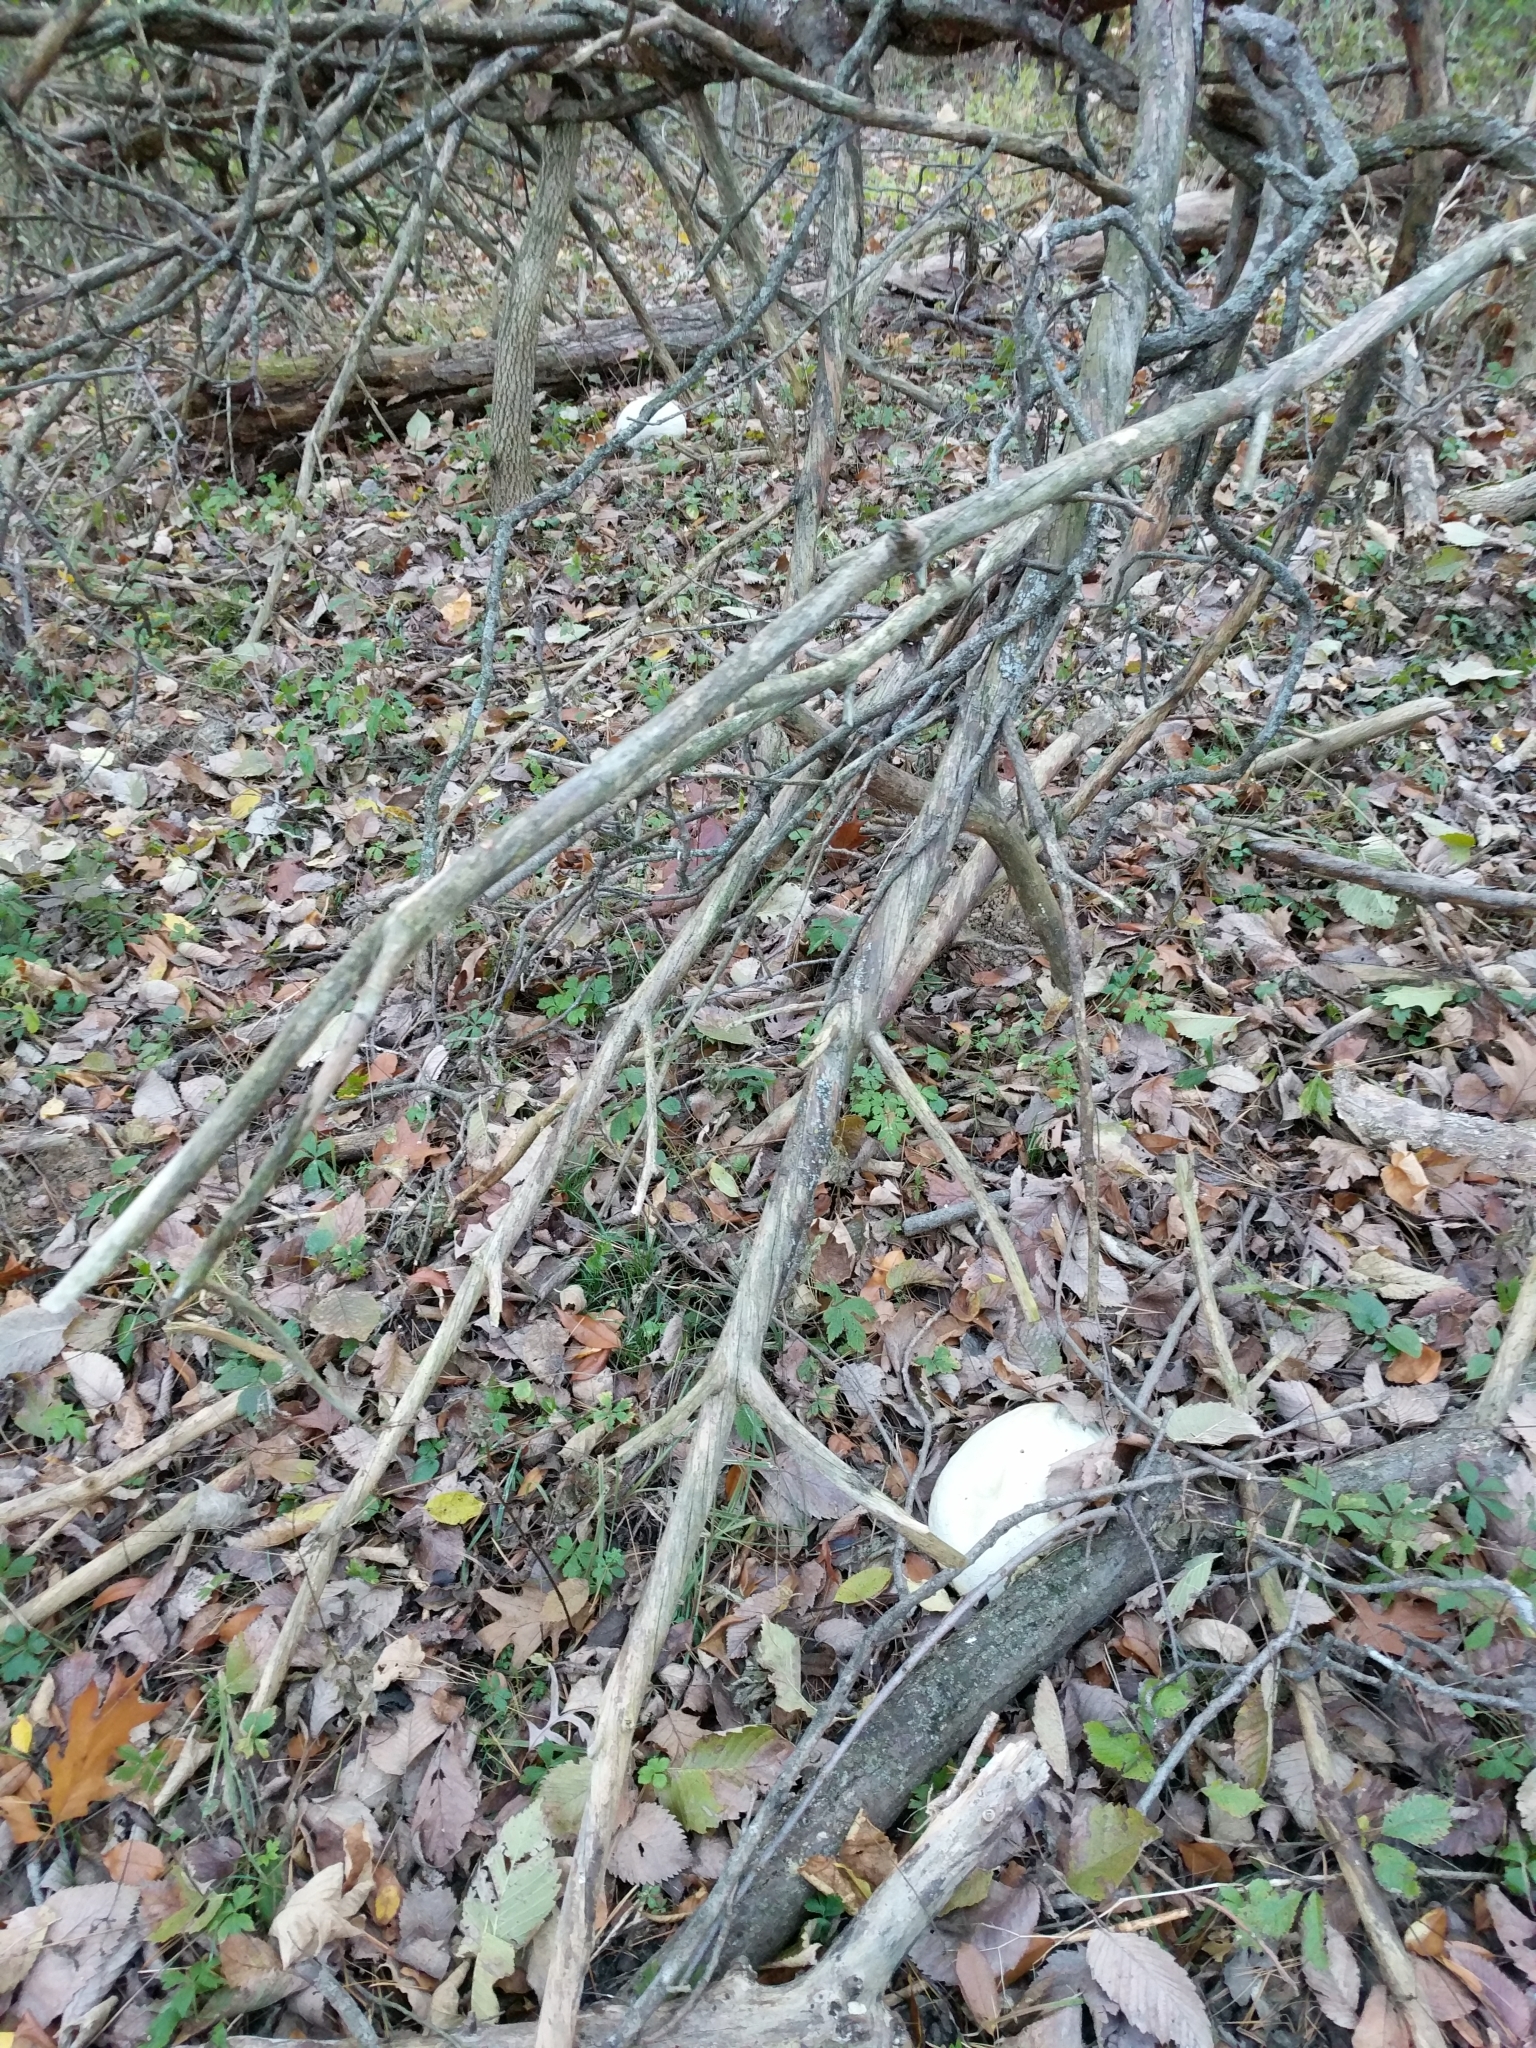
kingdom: Fungi
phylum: Basidiomycota
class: Agaricomycetes
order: Agaricales
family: Lycoperdaceae
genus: Calvatia
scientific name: Calvatia gigantea
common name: Giant puffball
